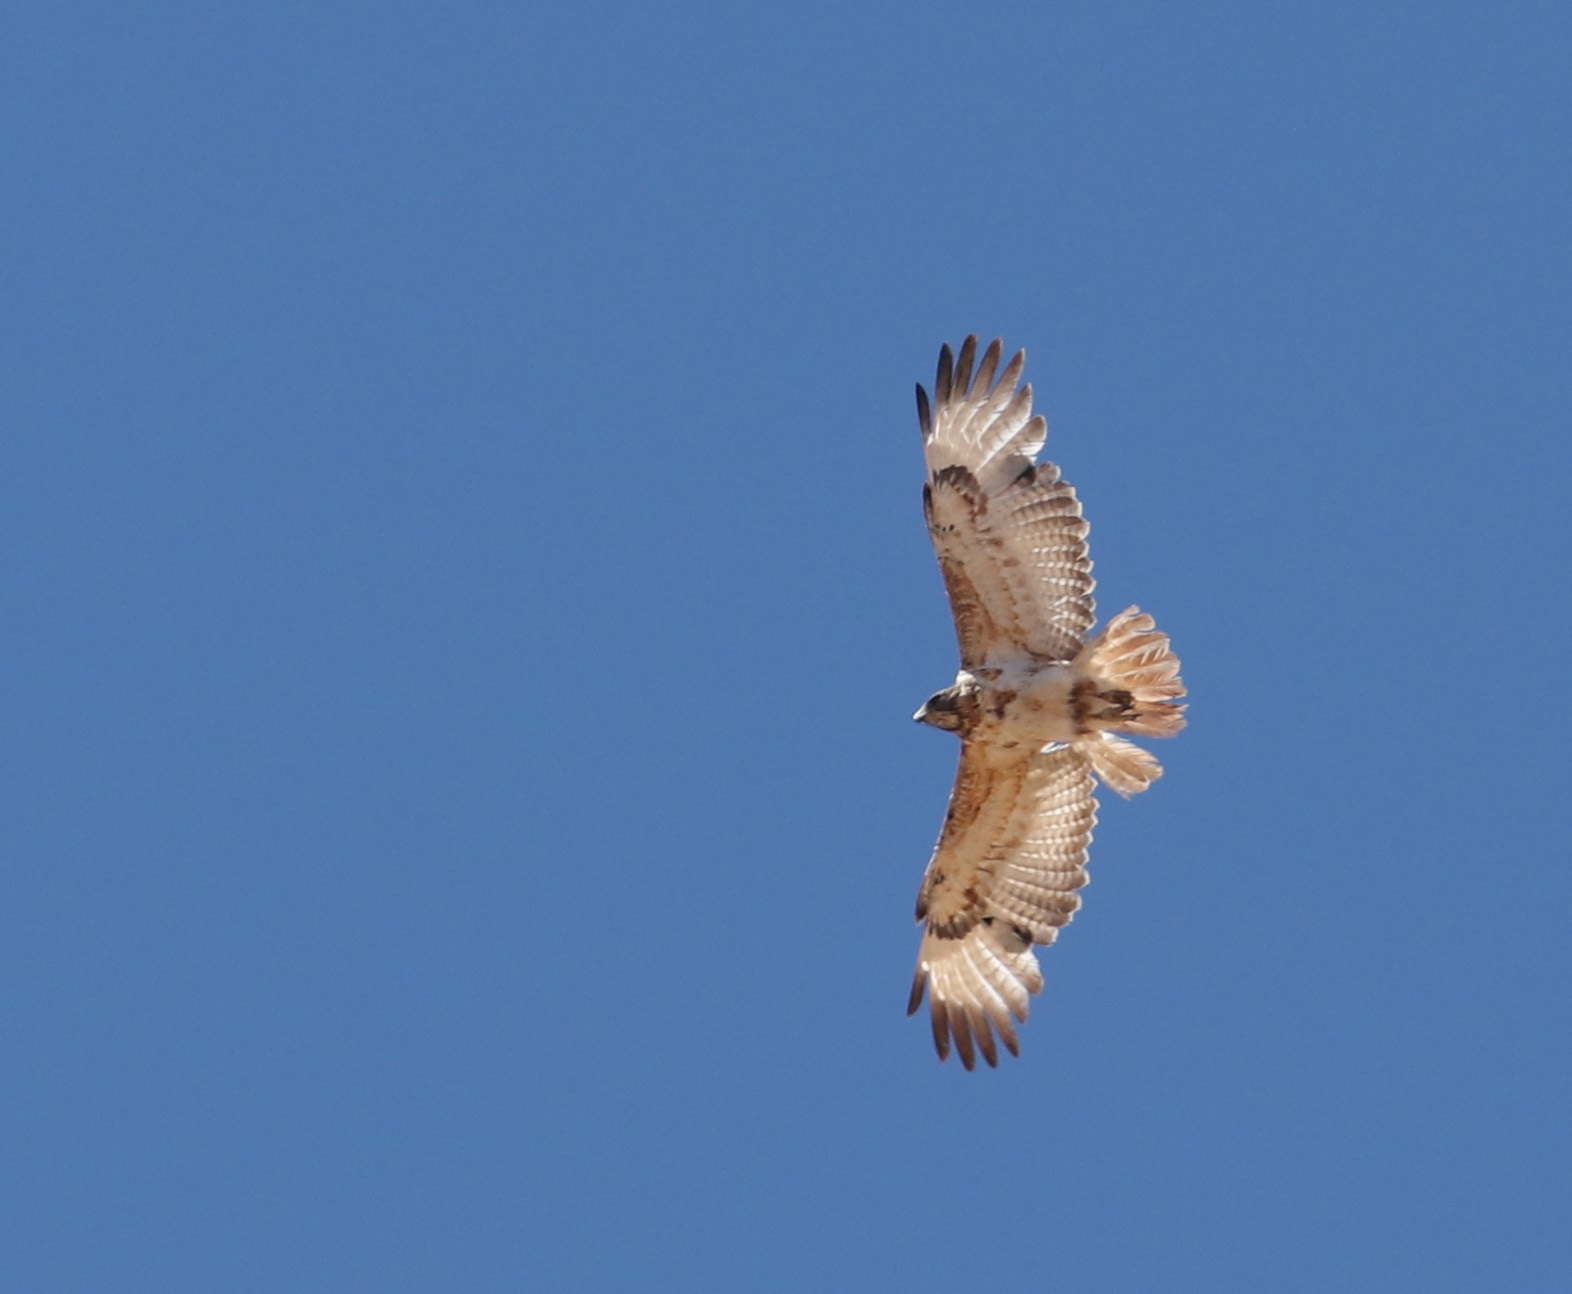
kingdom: Animalia
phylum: Chordata
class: Aves
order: Accipitriformes
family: Accipitridae
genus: Buteo
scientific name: Buteo augur
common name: Augur buzzard
